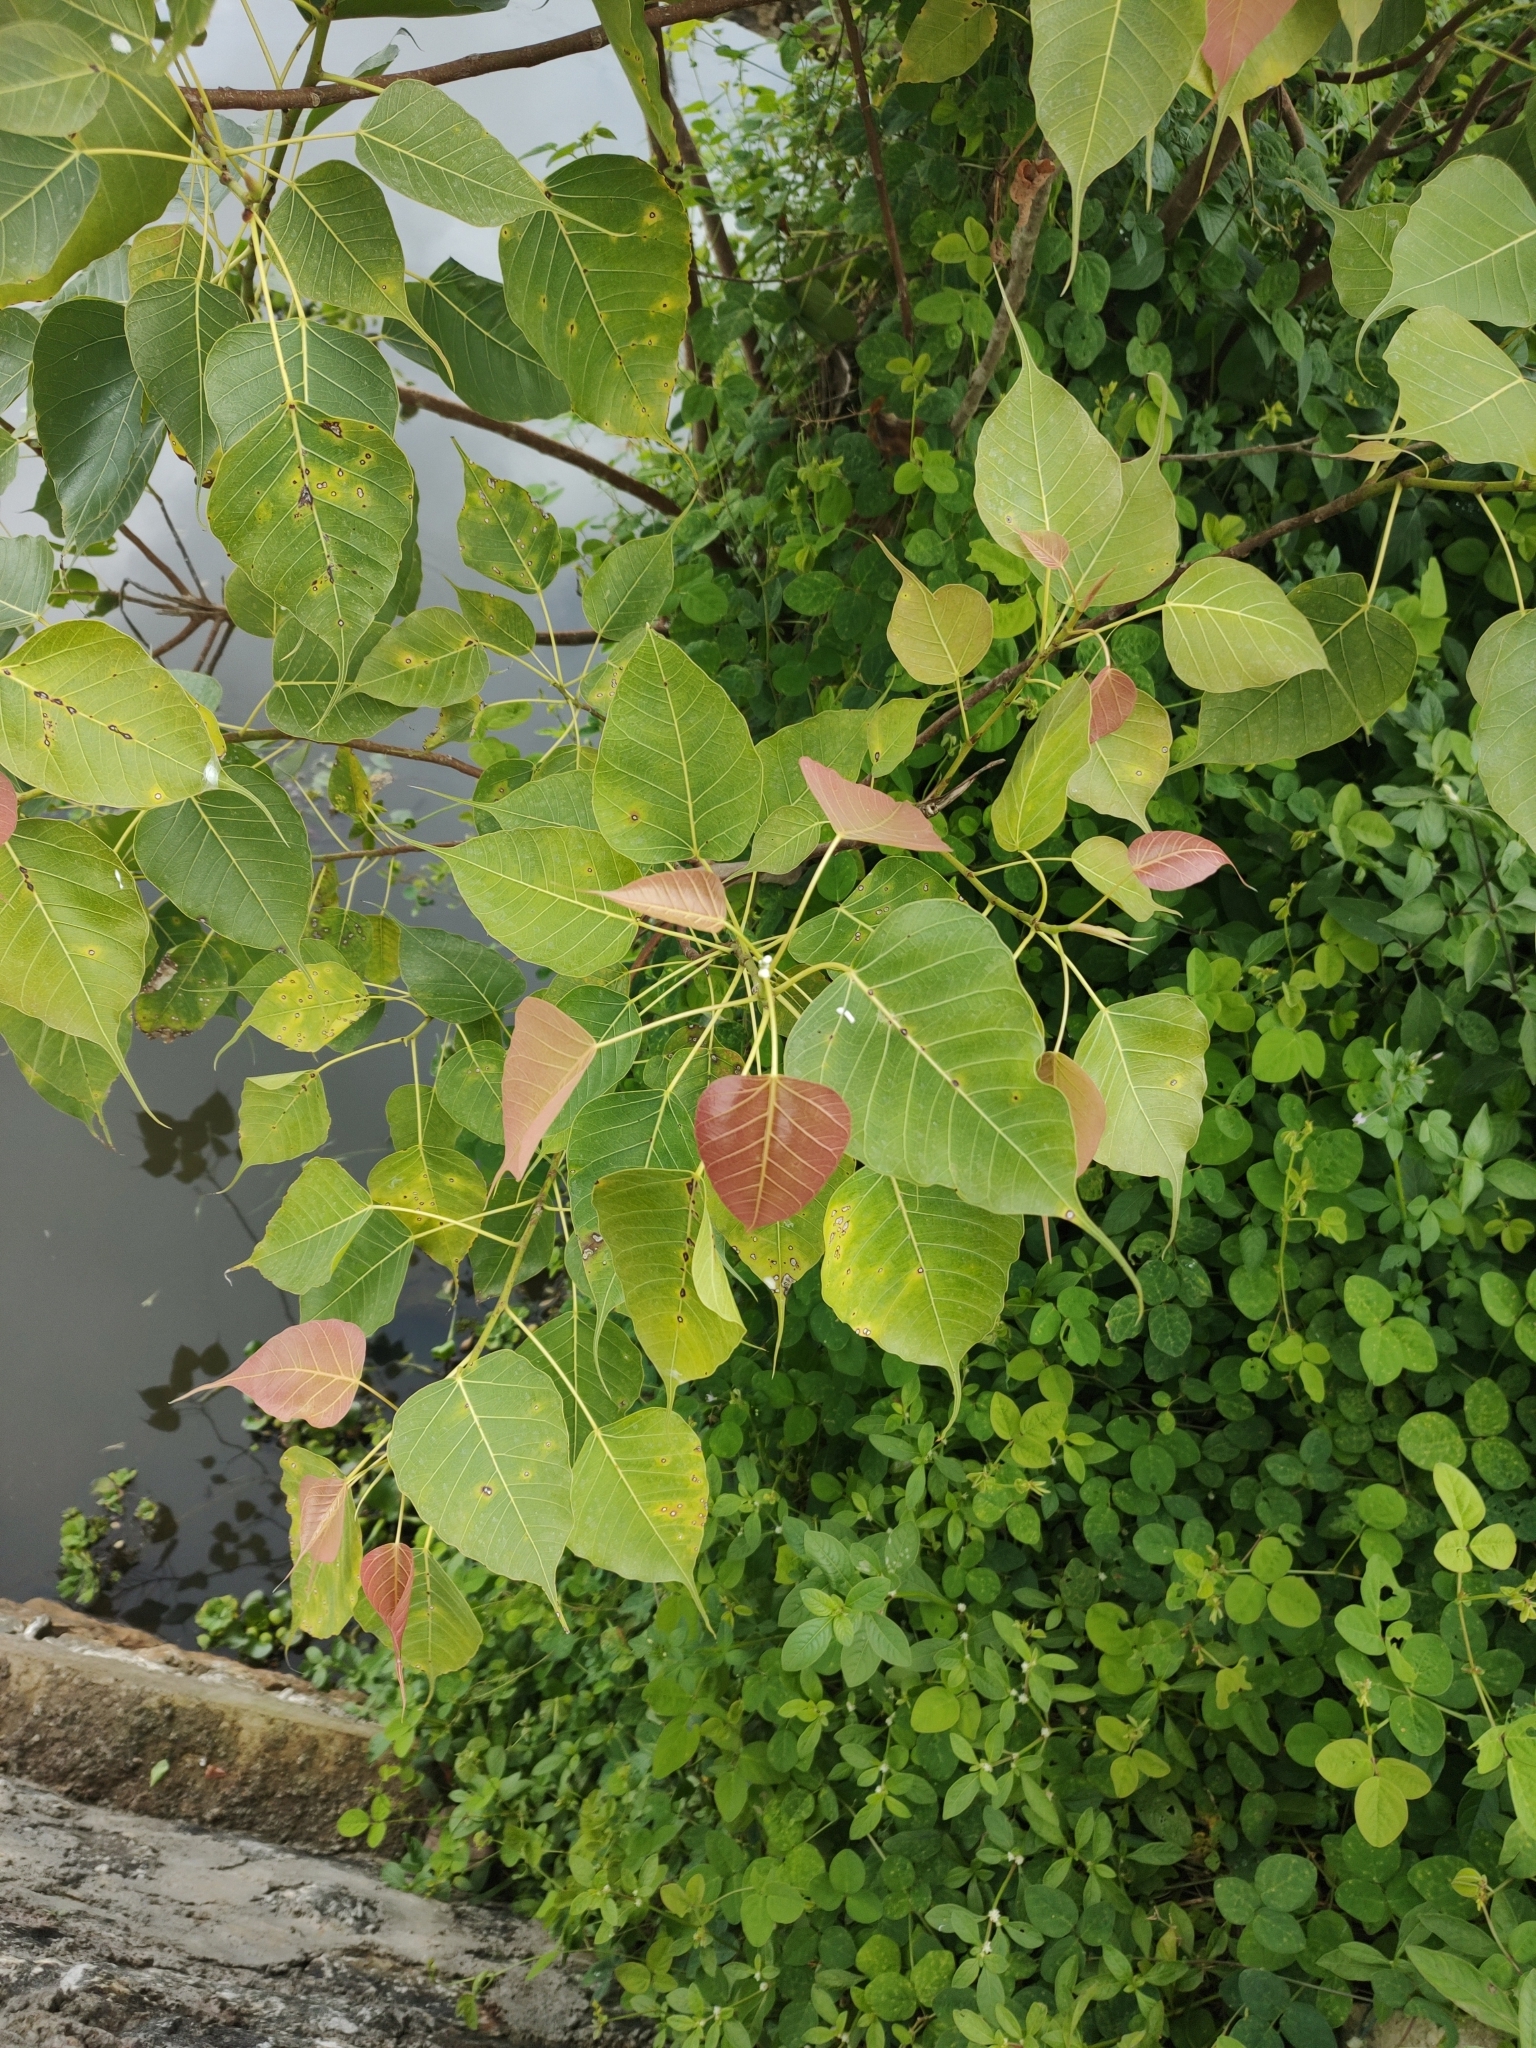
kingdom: Plantae
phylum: Tracheophyta
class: Magnoliopsida
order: Rosales
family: Moraceae
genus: Ficus
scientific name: Ficus religiosa
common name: Bodhi tree
